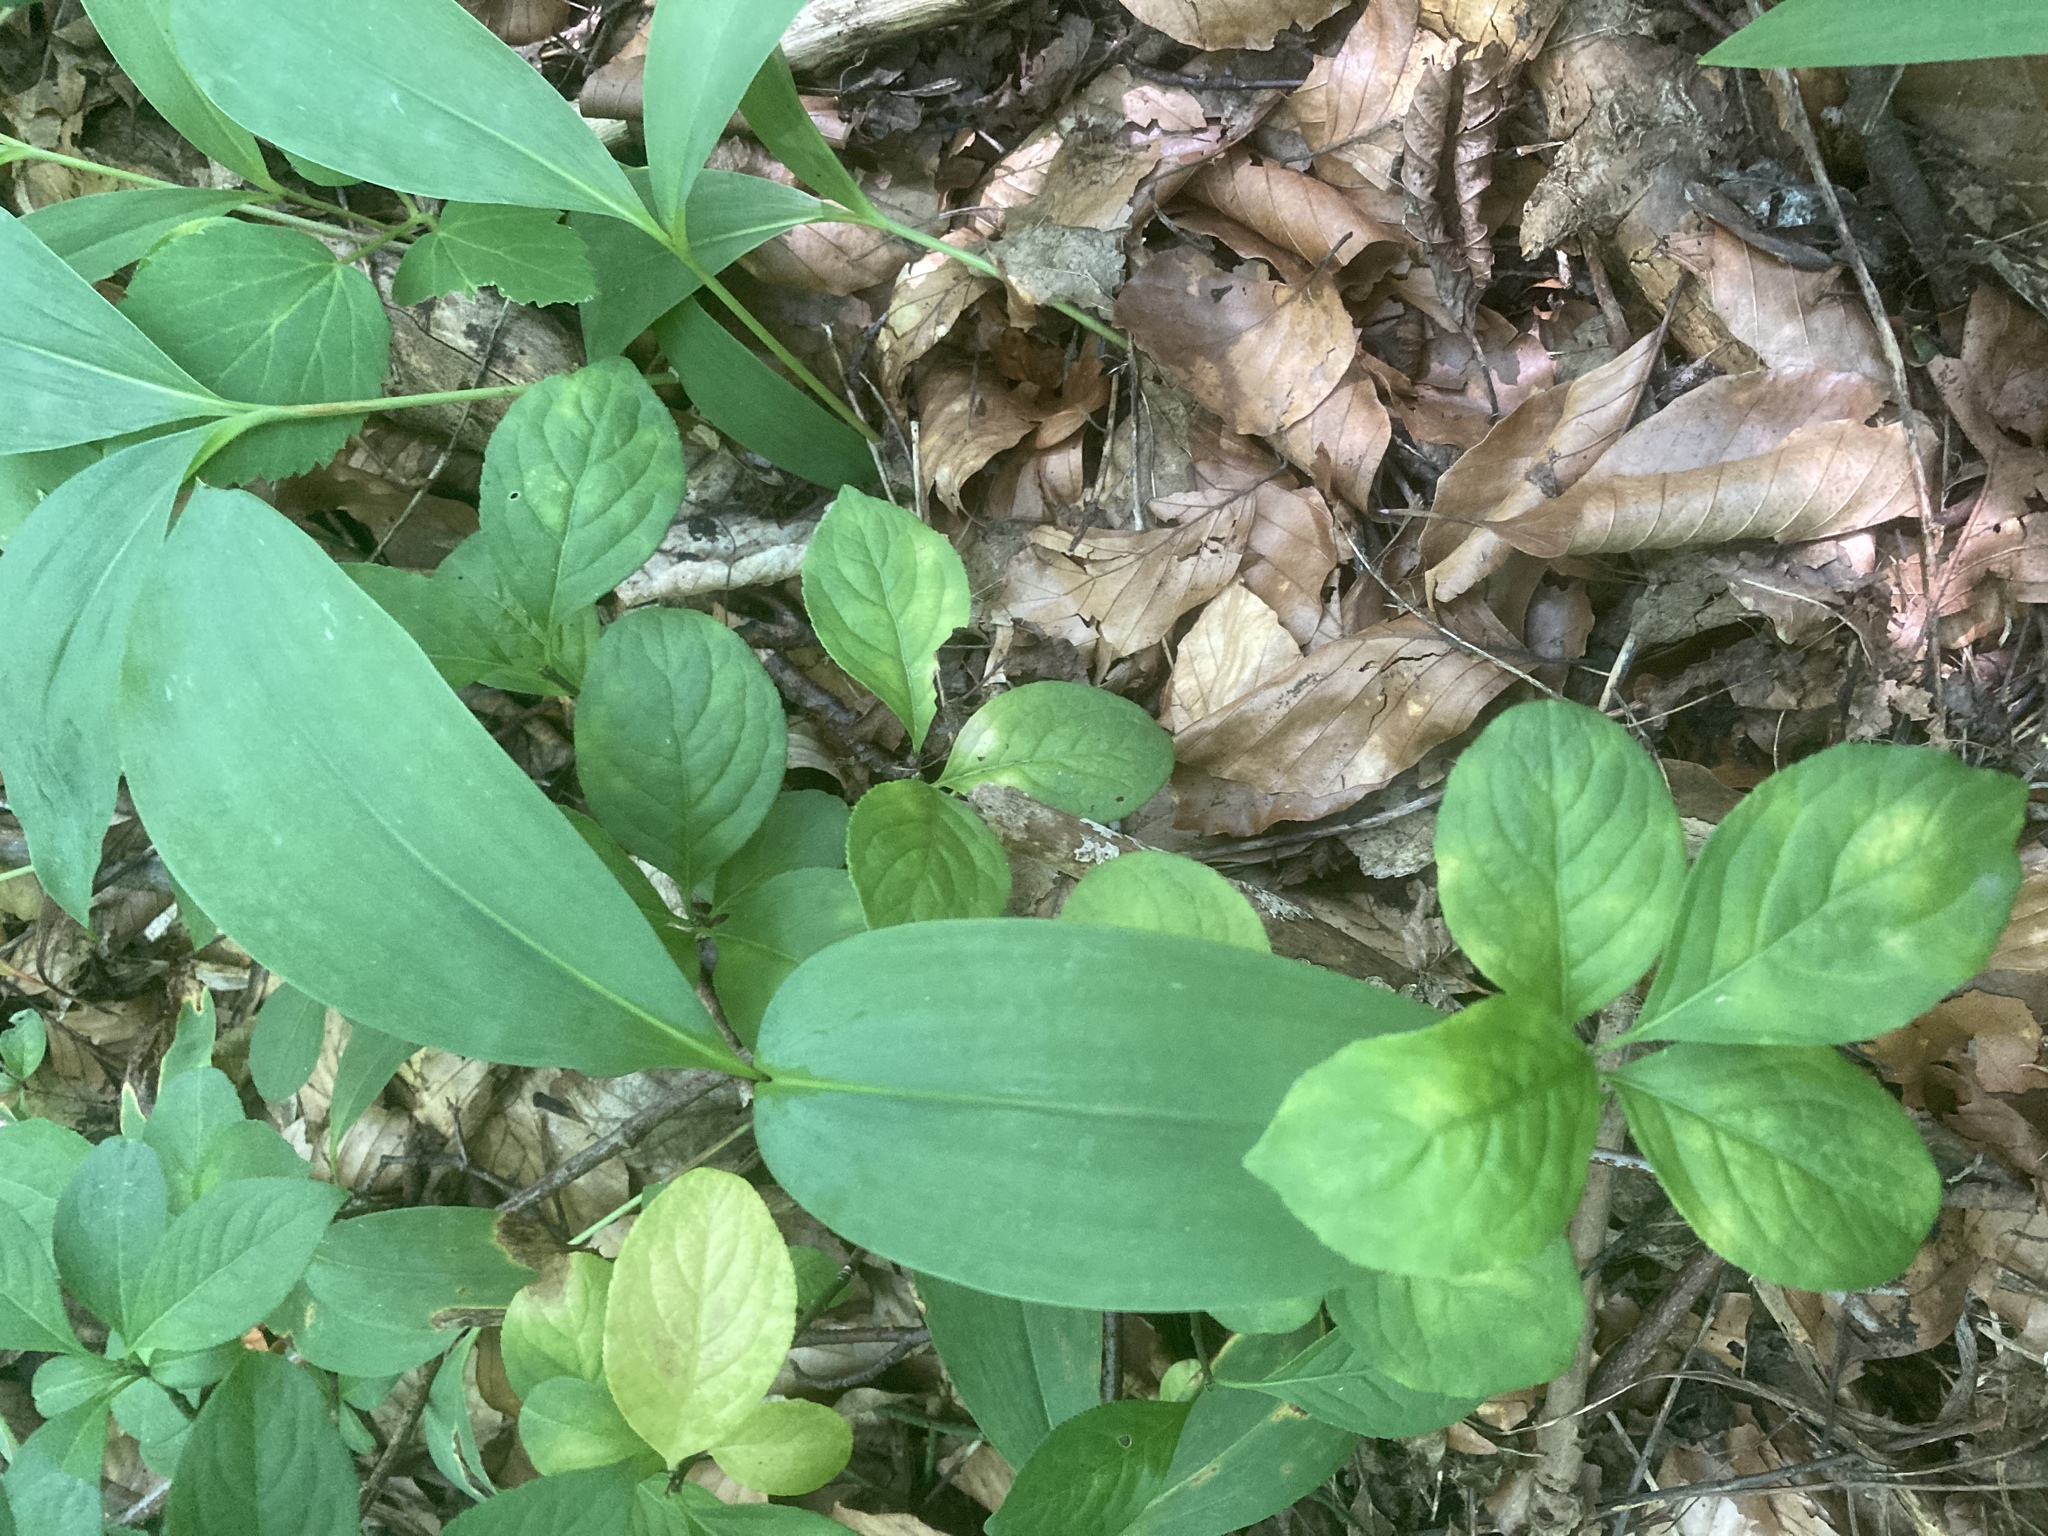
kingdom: Plantae
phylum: Tracheophyta
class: Liliopsida
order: Asparagales
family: Asparagaceae
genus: Convallaria
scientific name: Convallaria majalis
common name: Lily-of-the-valley
